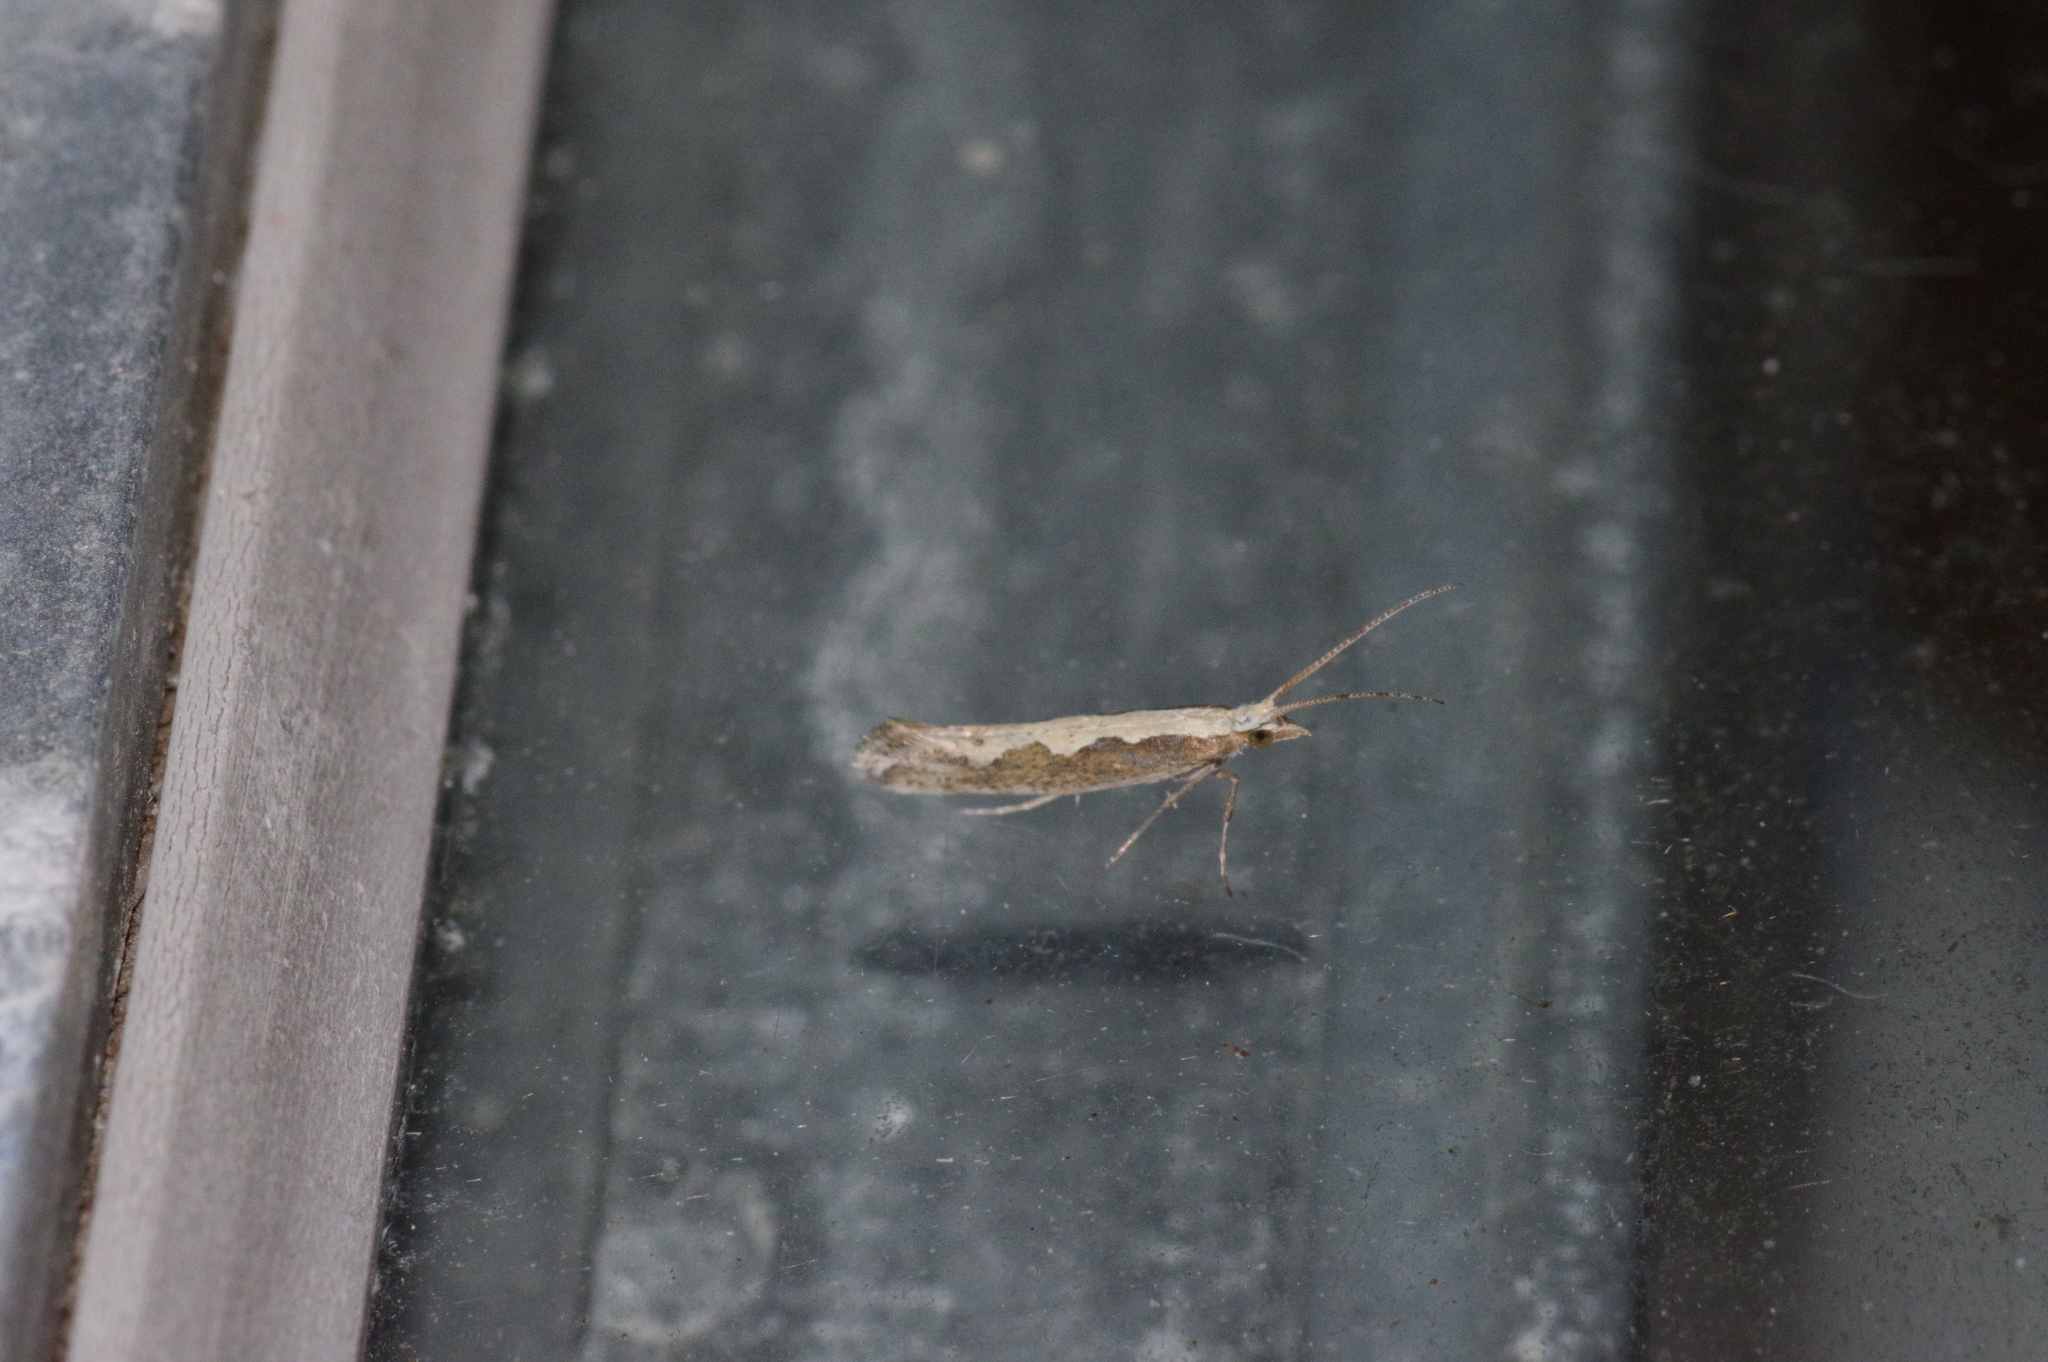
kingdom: Animalia
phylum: Arthropoda
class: Insecta
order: Lepidoptera
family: Plutellidae
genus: Plutella
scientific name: Plutella xylostella
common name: Diamond-back moth
